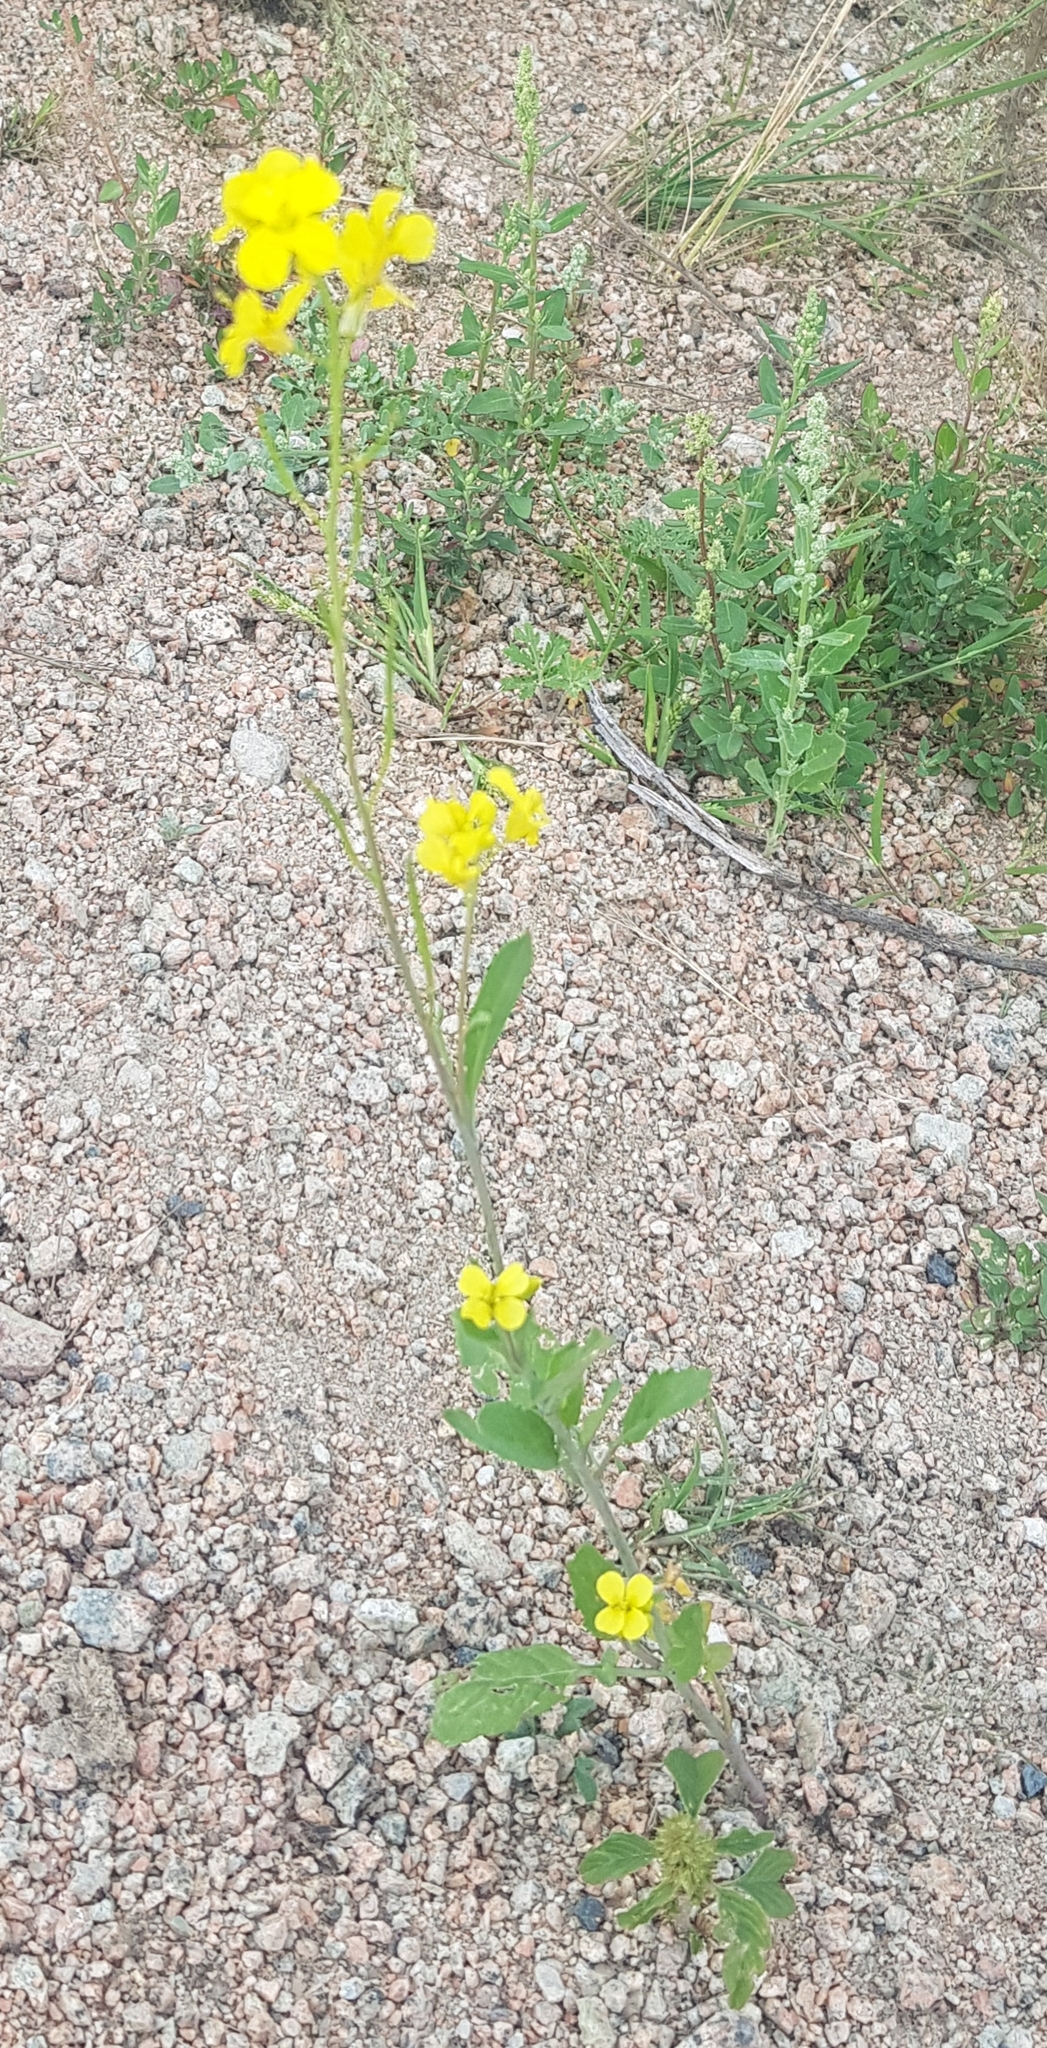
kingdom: Plantae
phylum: Tracheophyta
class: Magnoliopsida
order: Brassicales
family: Brassicaceae
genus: Brassica
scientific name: Brassica rapa
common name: Field mustard
